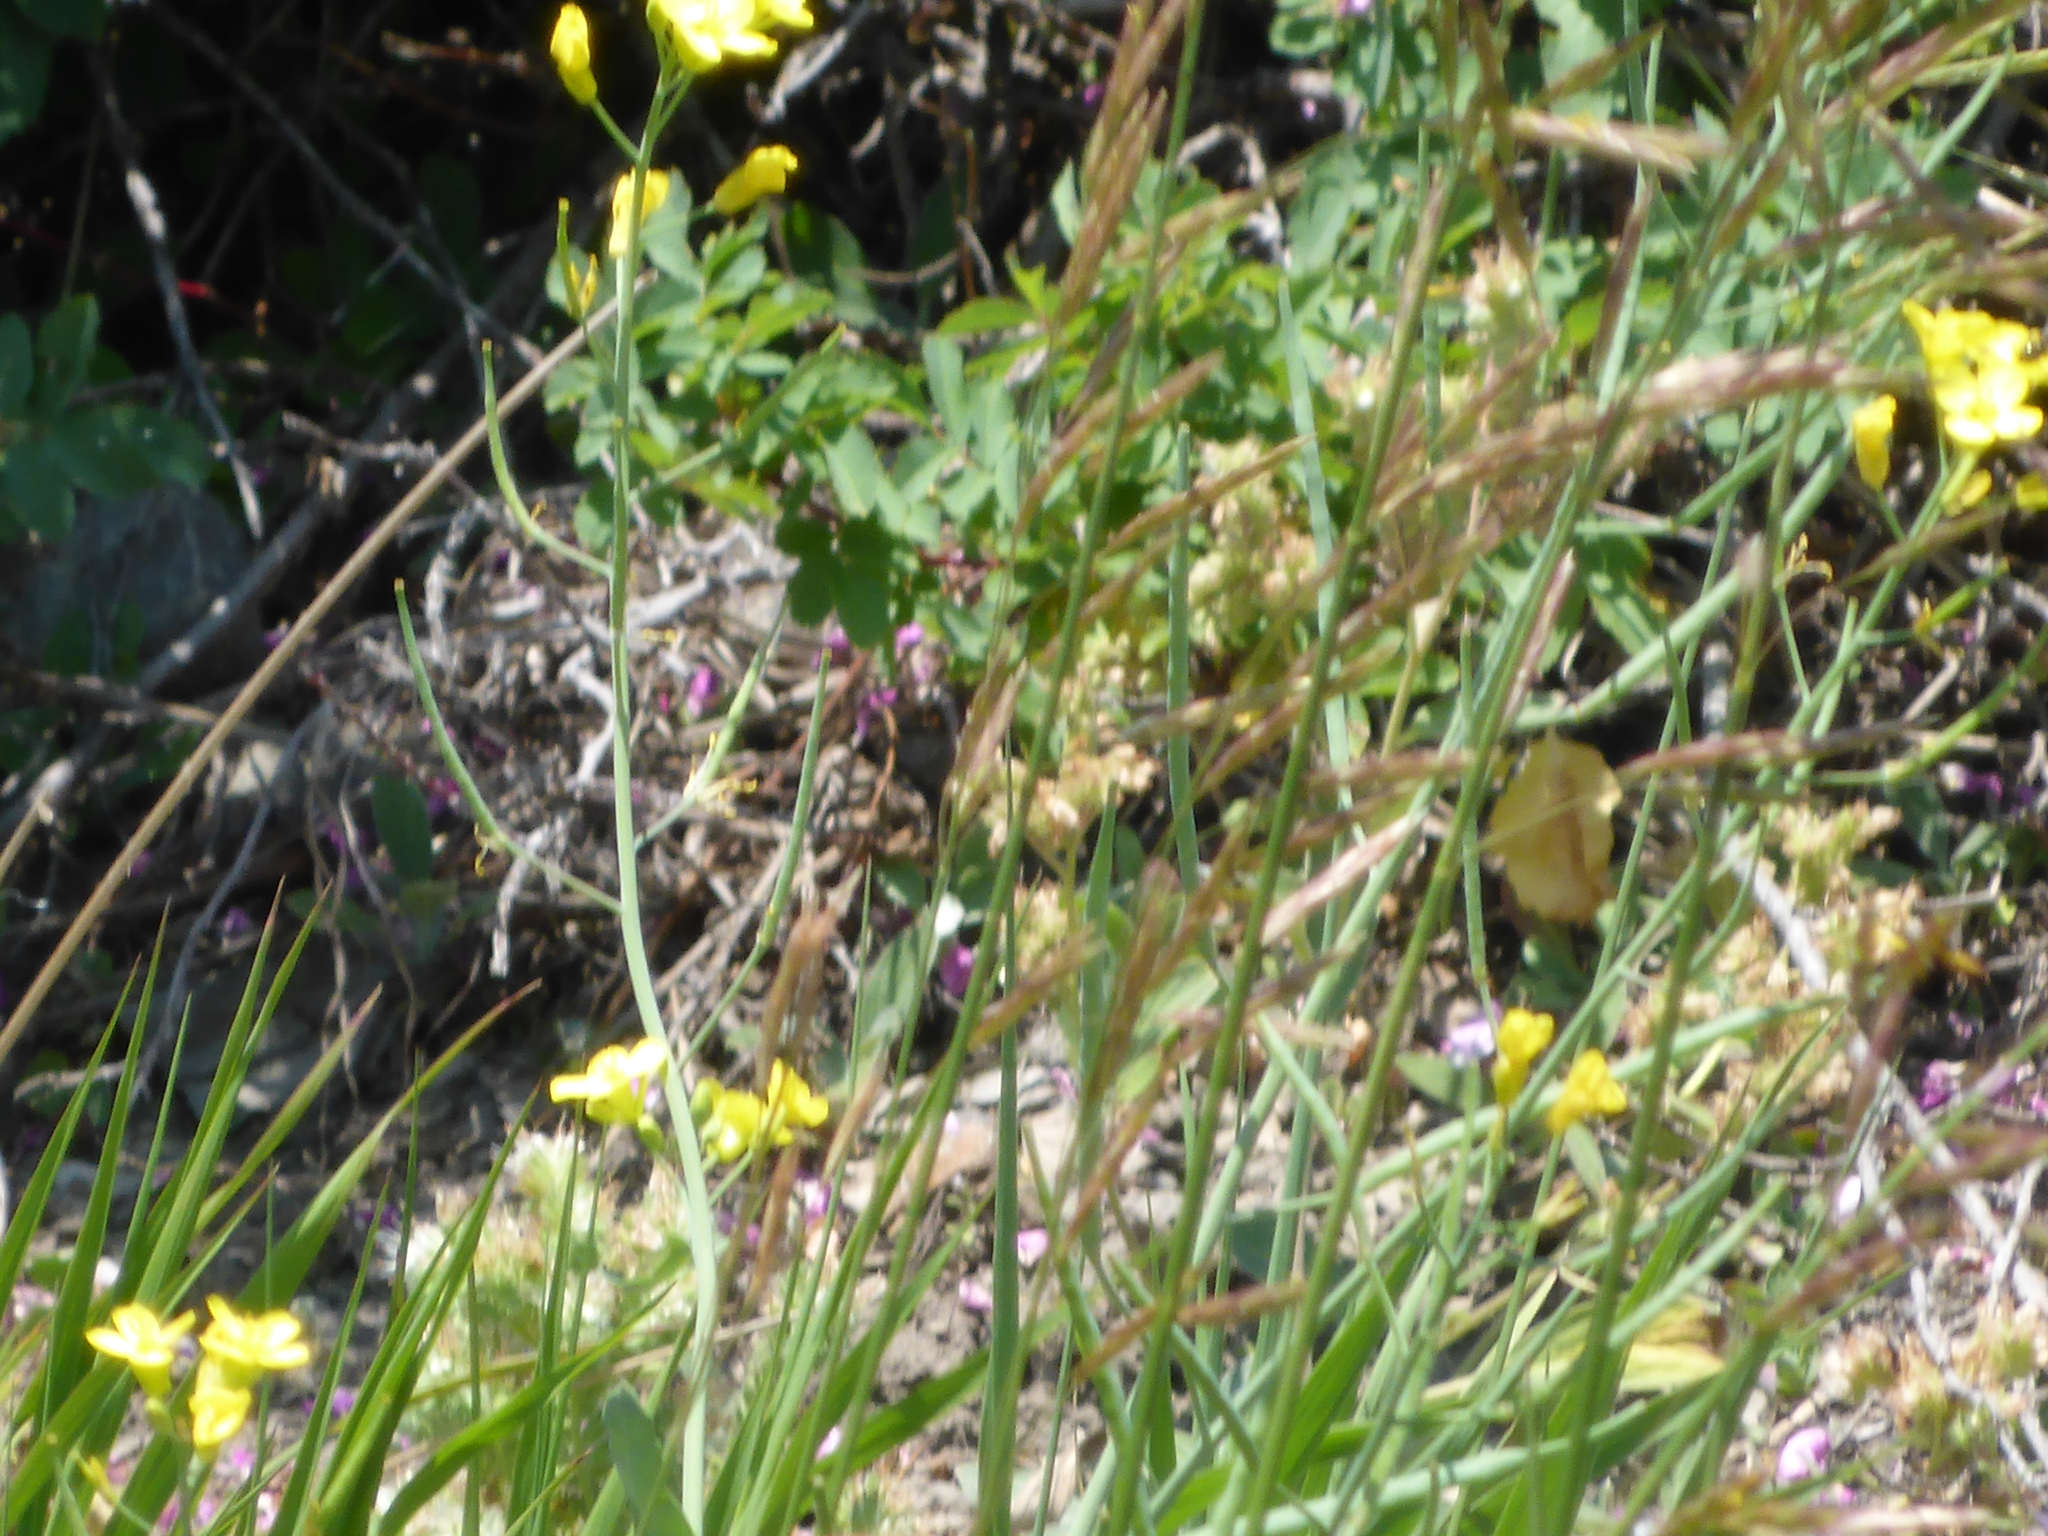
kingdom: Plantae
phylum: Tracheophyta
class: Magnoliopsida
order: Brassicales
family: Brassicaceae
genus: Brassica
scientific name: Brassica napus
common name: Rape
